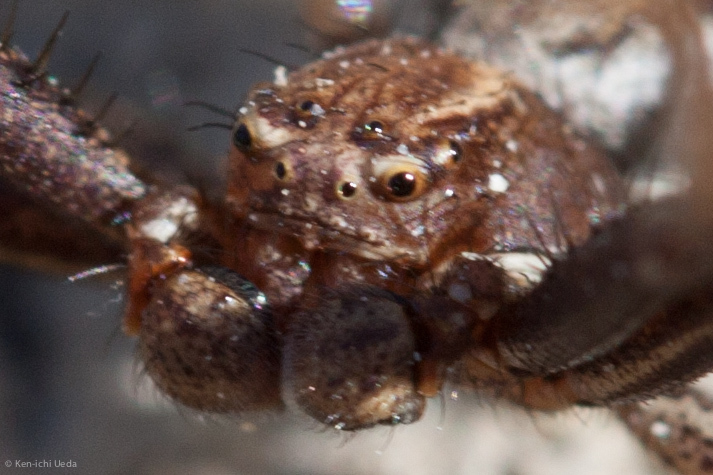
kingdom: Animalia
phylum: Arthropoda
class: Arachnida
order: Araneae
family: Thomisidae
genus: Xysticus
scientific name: Xysticus
